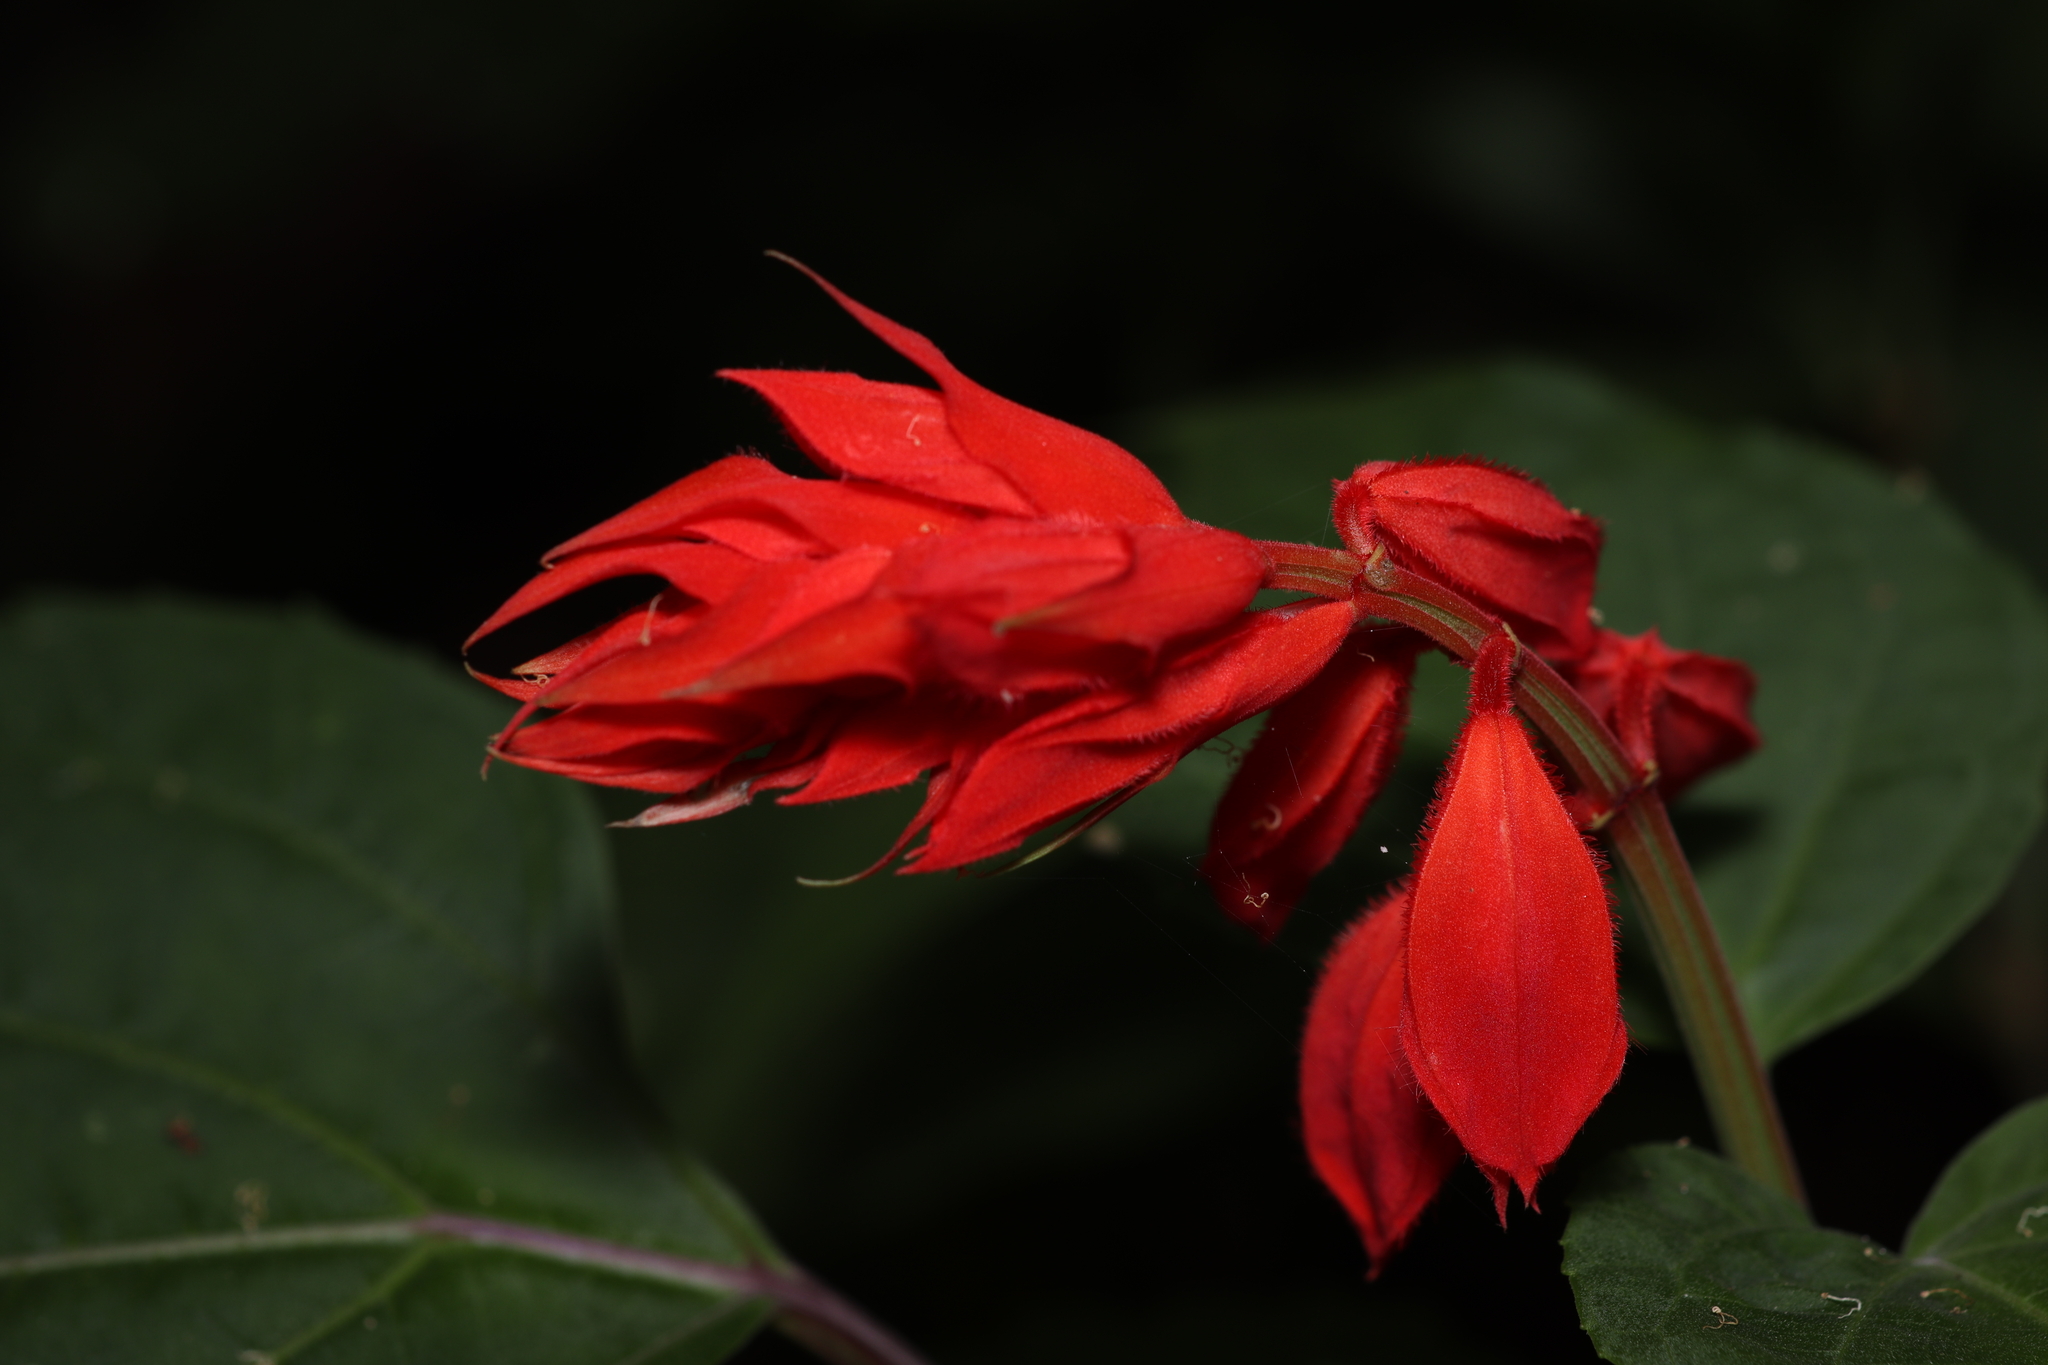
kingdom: Plantae
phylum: Tracheophyta
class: Magnoliopsida
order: Lamiales
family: Lamiaceae
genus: Salvia
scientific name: Salvia splendens
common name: Scarlet sage
